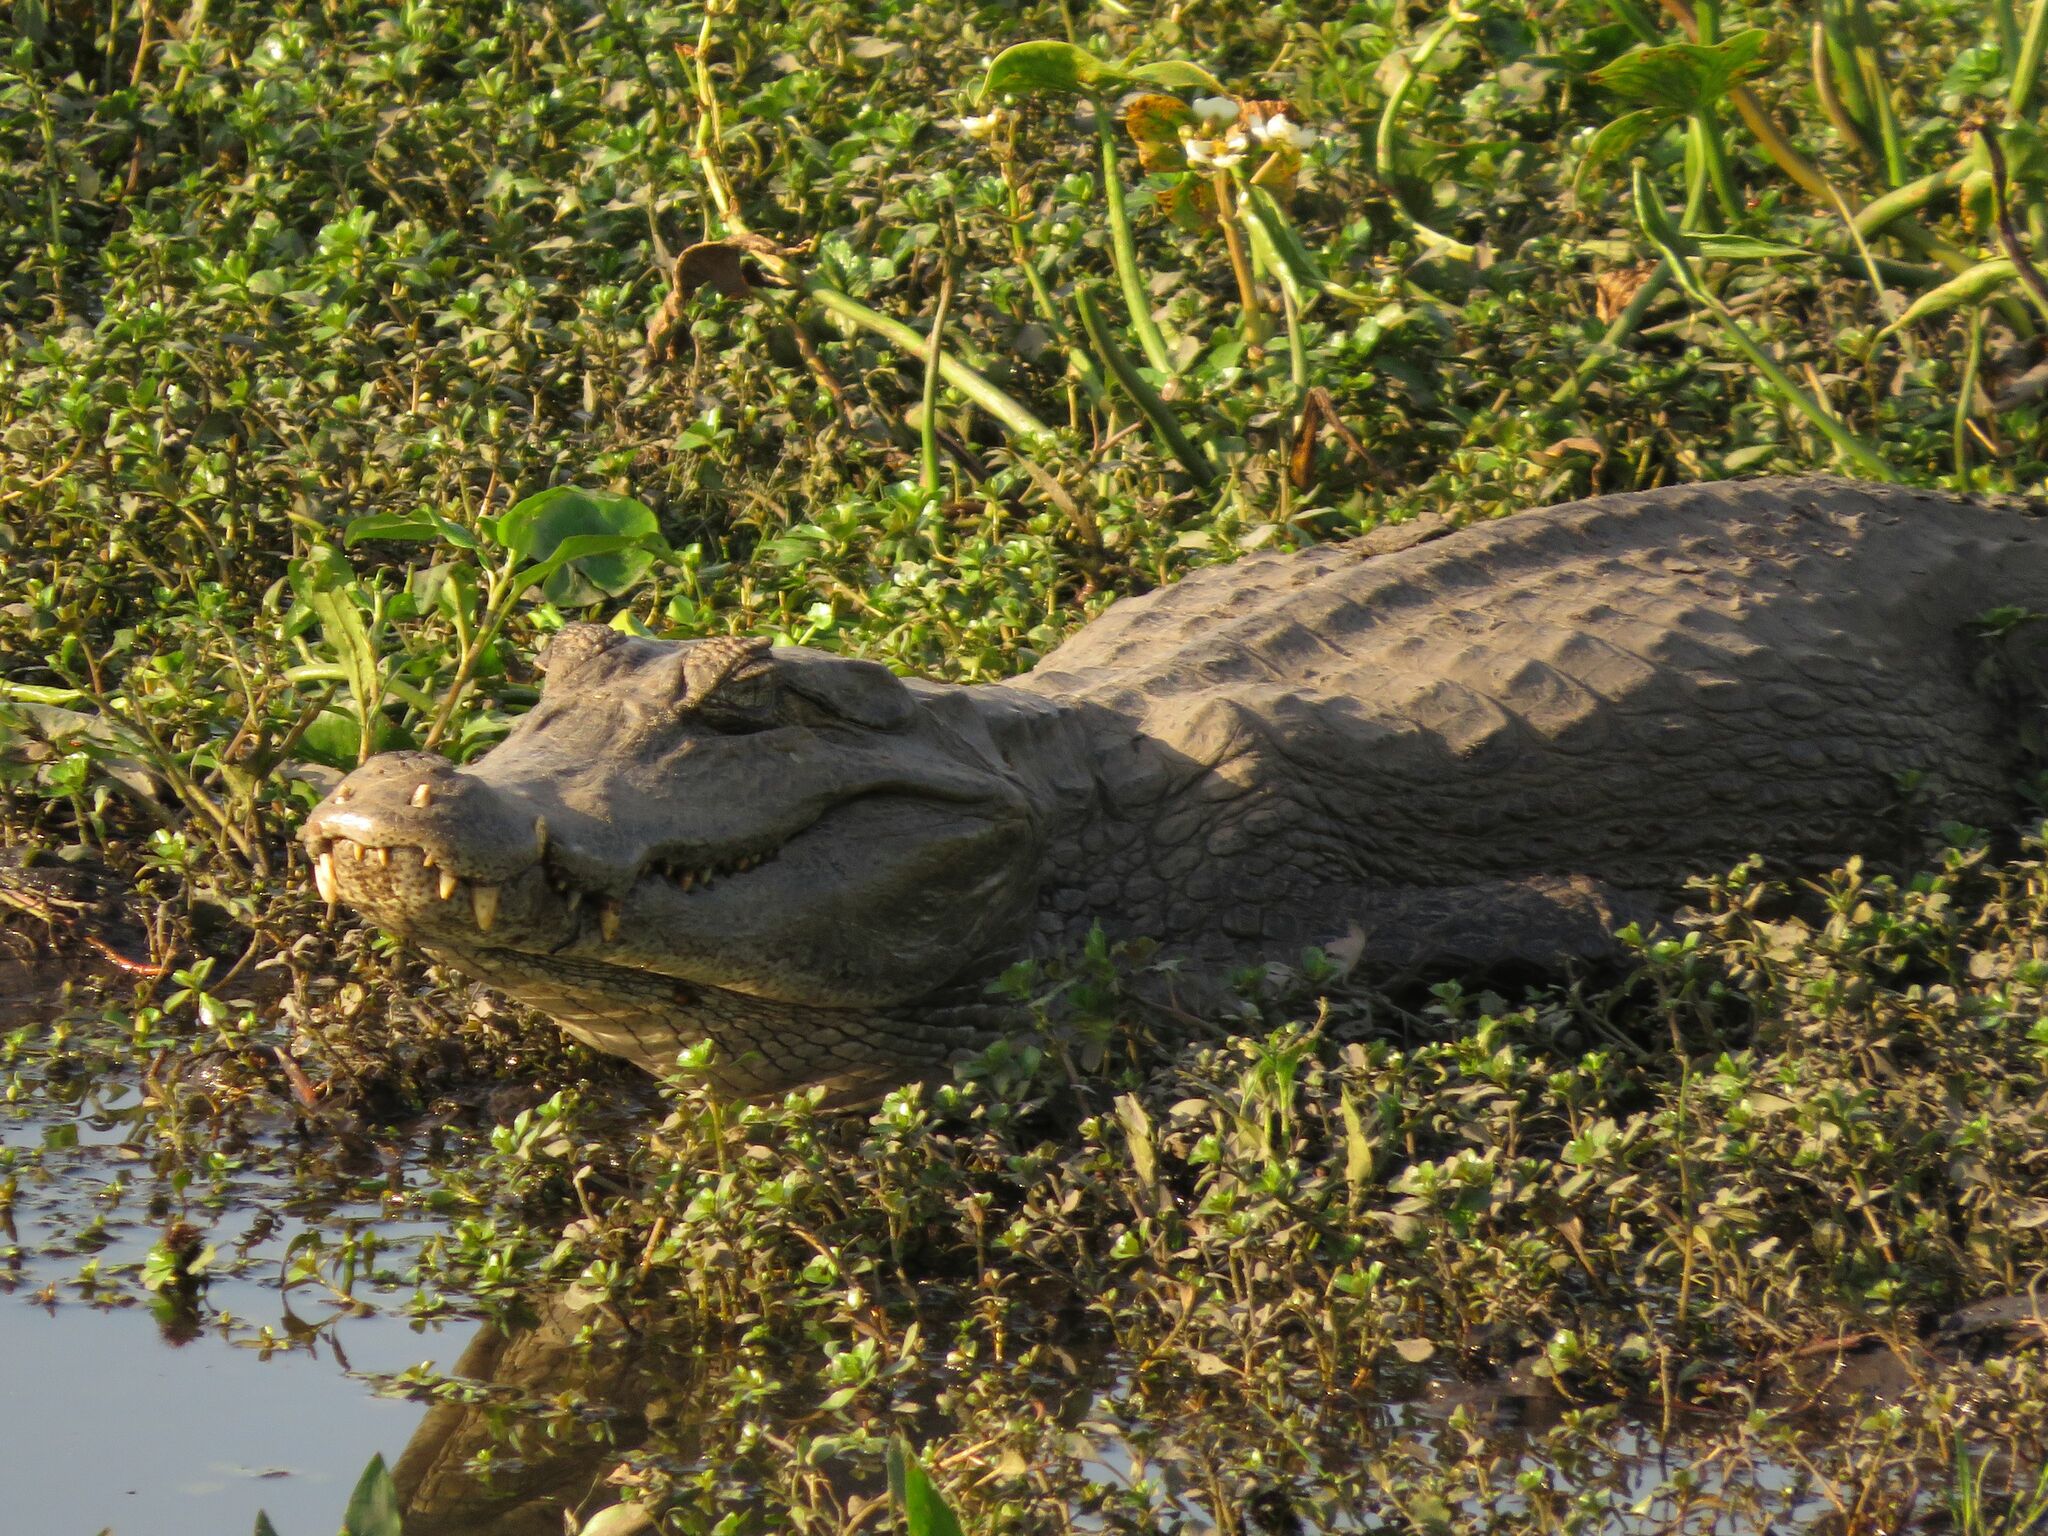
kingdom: Animalia
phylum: Chordata
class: Crocodylia
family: Alligatoridae
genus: Caiman
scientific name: Caiman yacare
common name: Yacare caiman
